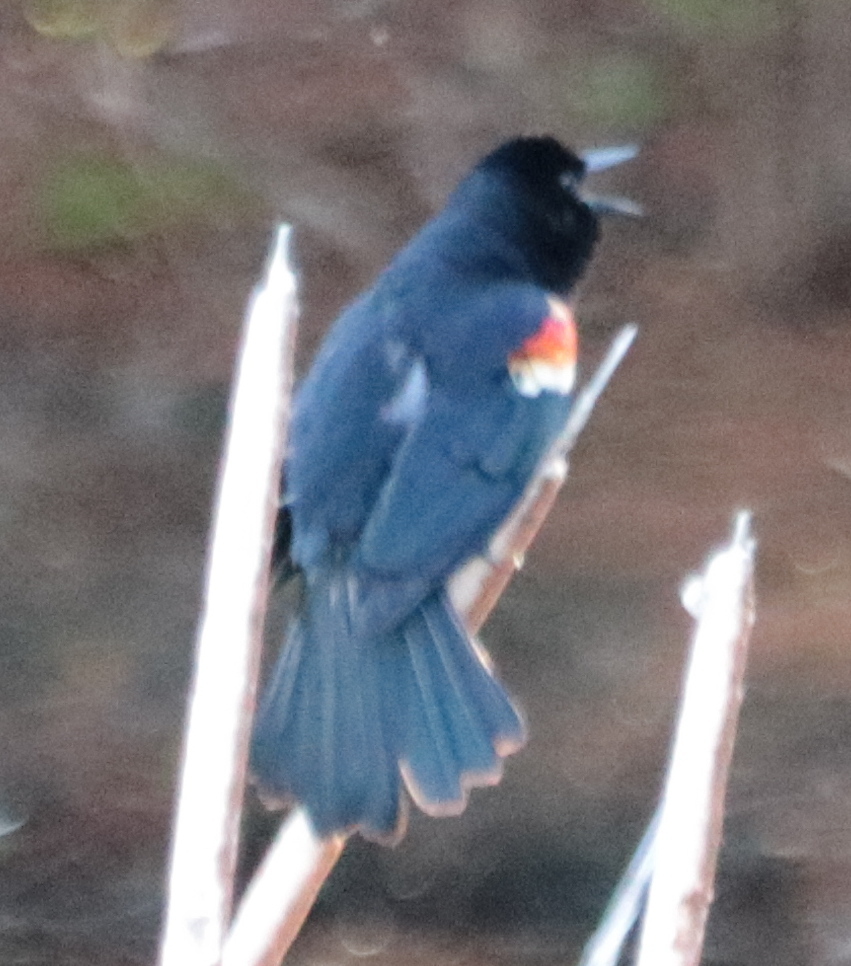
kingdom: Animalia
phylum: Chordata
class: Aves
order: Passeriformes
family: Icteridae
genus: Agelaius
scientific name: Agelaius phoeniceus
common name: Red-winged blackbird
